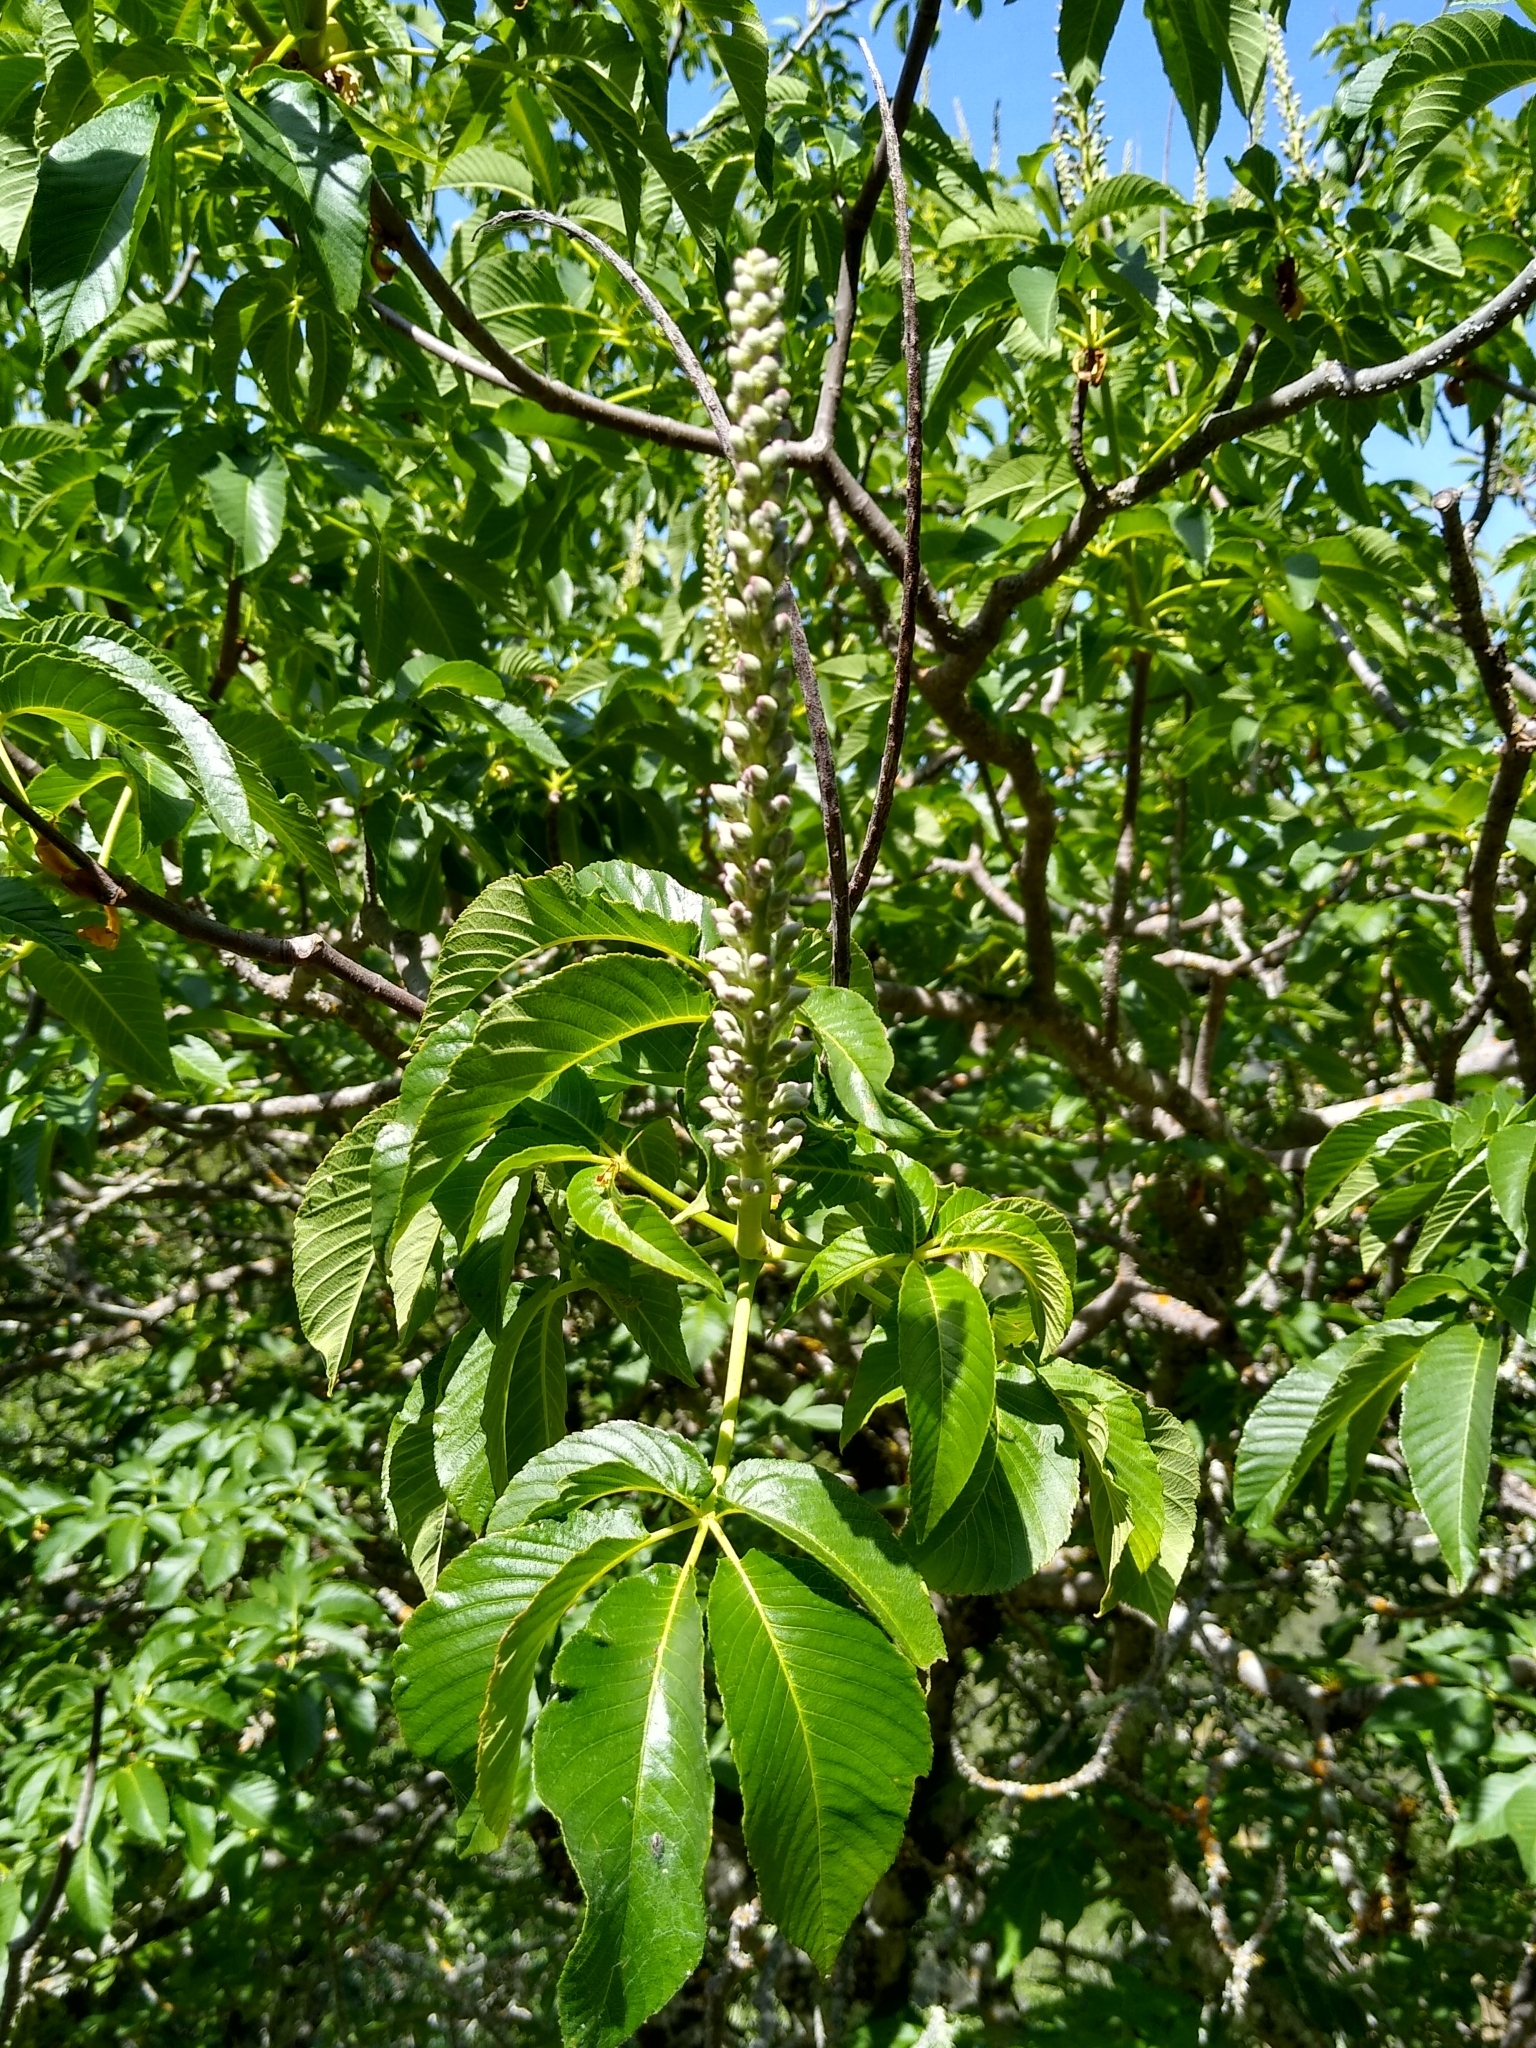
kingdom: Plantae
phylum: Tracheophyta
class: Magnoliopsida
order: Sapindales
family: Sapindaceae
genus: Aesculus
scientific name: Aesculus californica
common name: California buckeye
